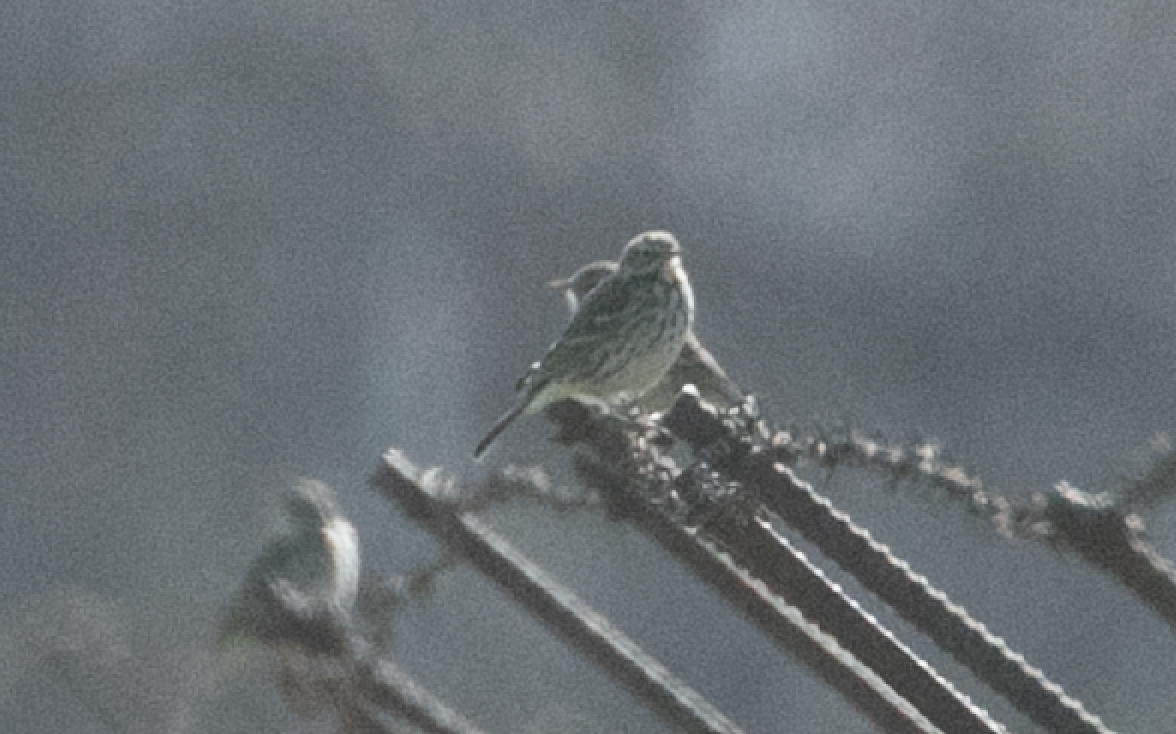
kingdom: Animalia
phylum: Chordata
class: Aves
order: Passeriformes
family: Motacillidae
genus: Anthus
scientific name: Anthus pratensis
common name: Meadow pipit
